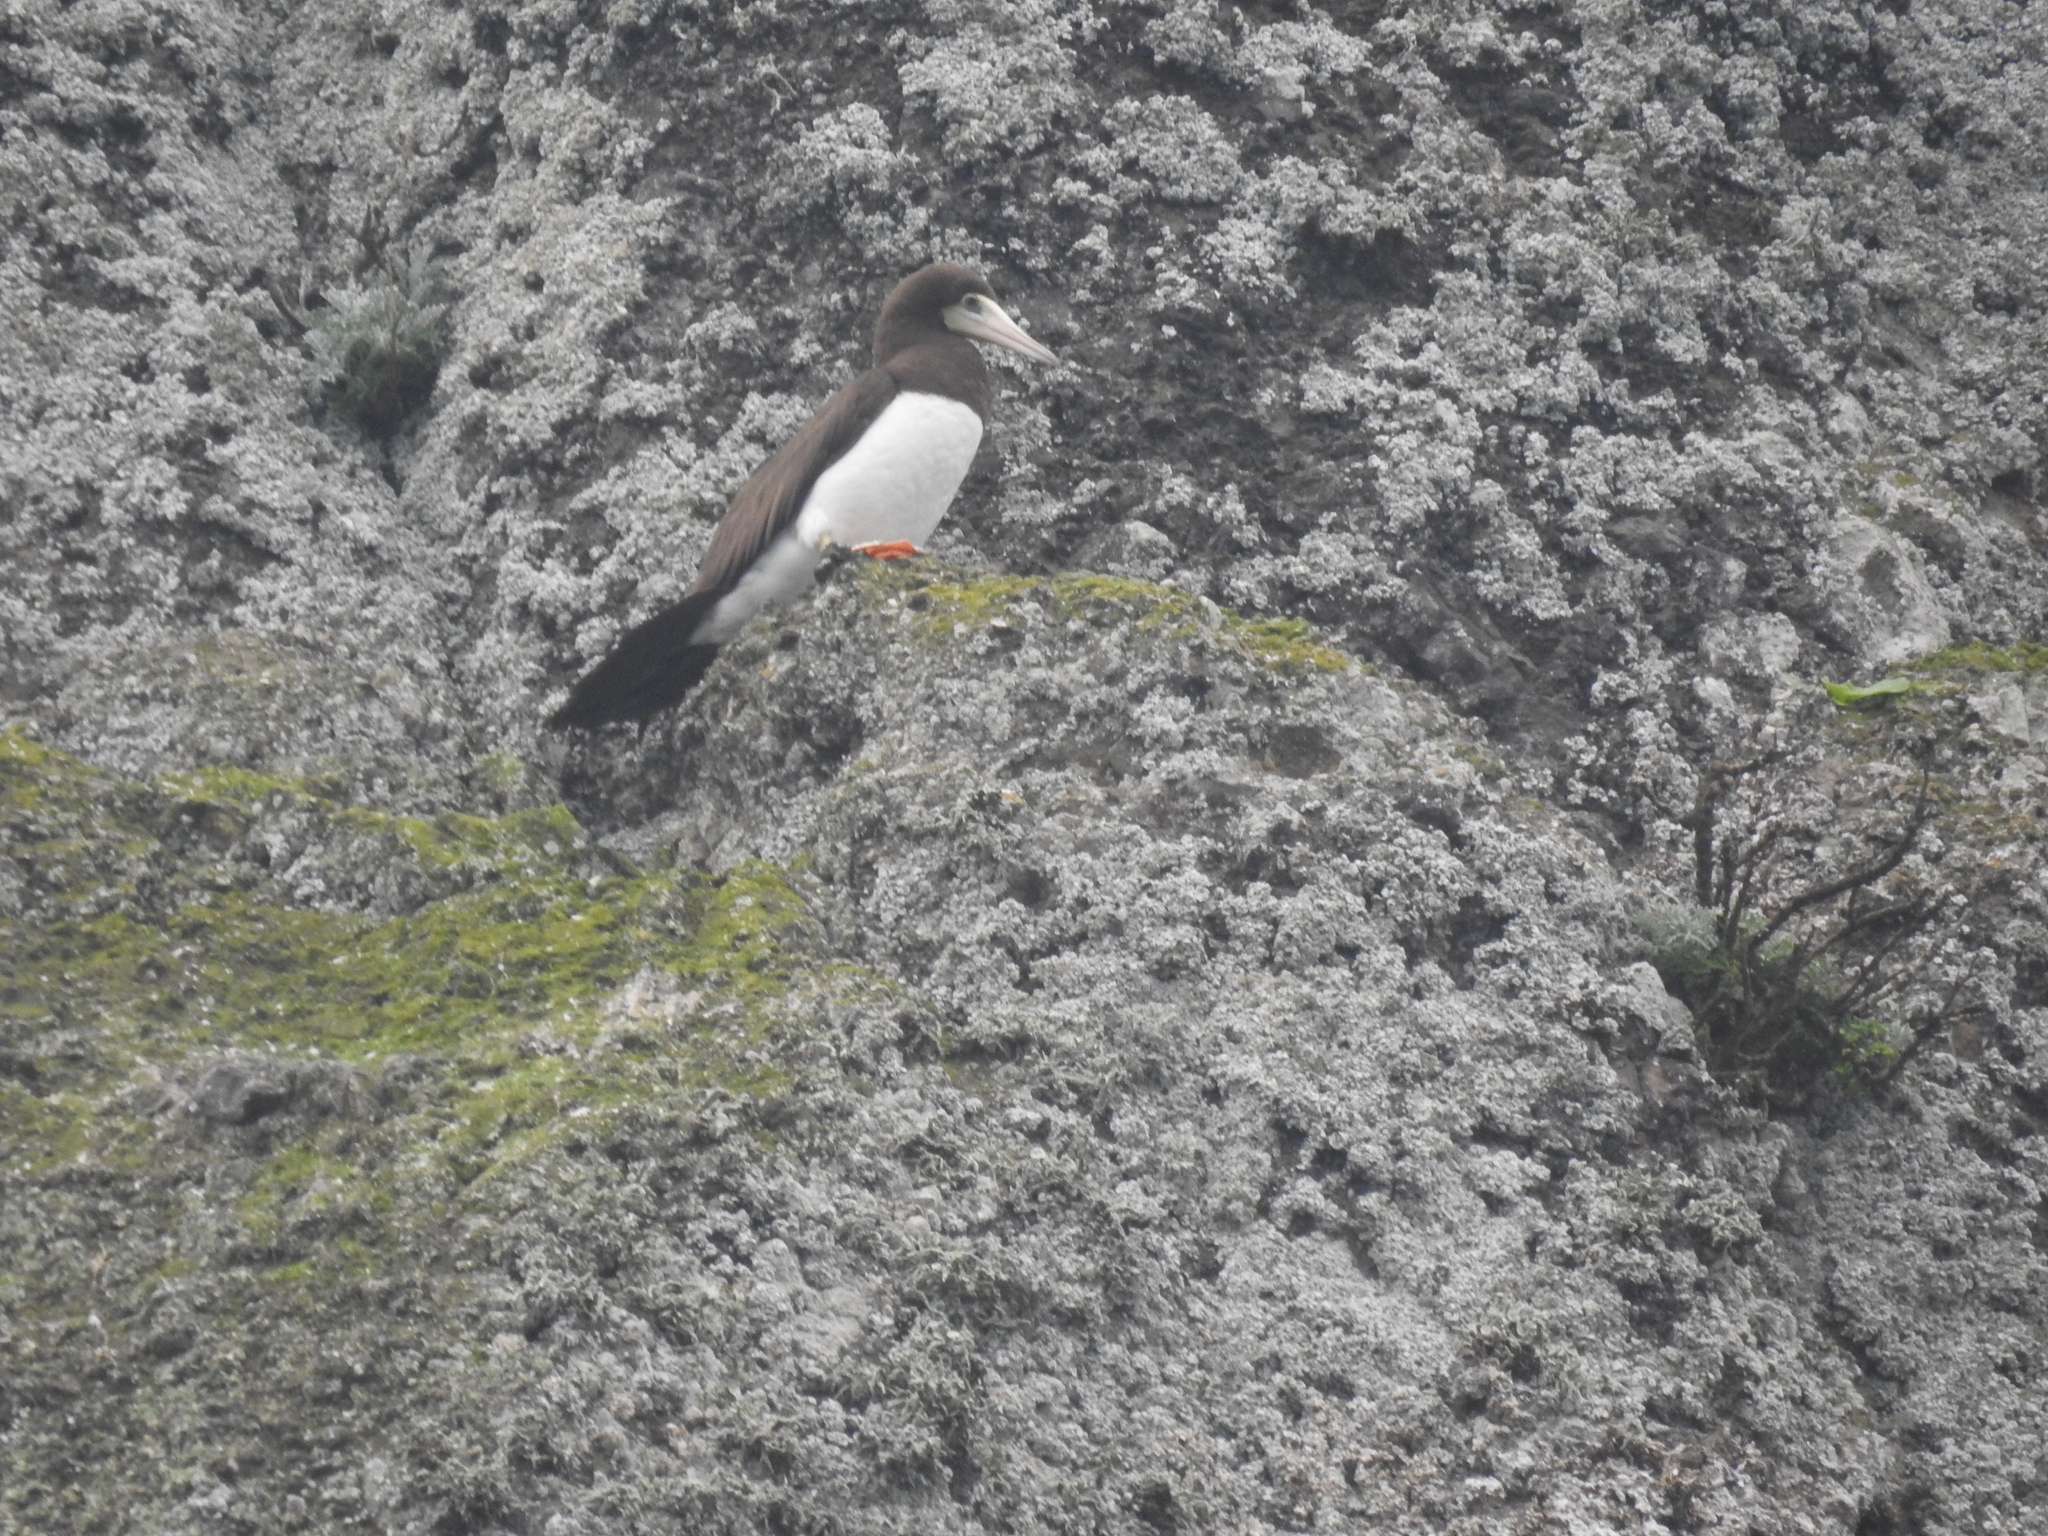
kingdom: Animalia
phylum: Chordata
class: Aves
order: Suliformes
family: Sulidae
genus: Sula
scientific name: Sula leucogaster
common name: Brown booby
